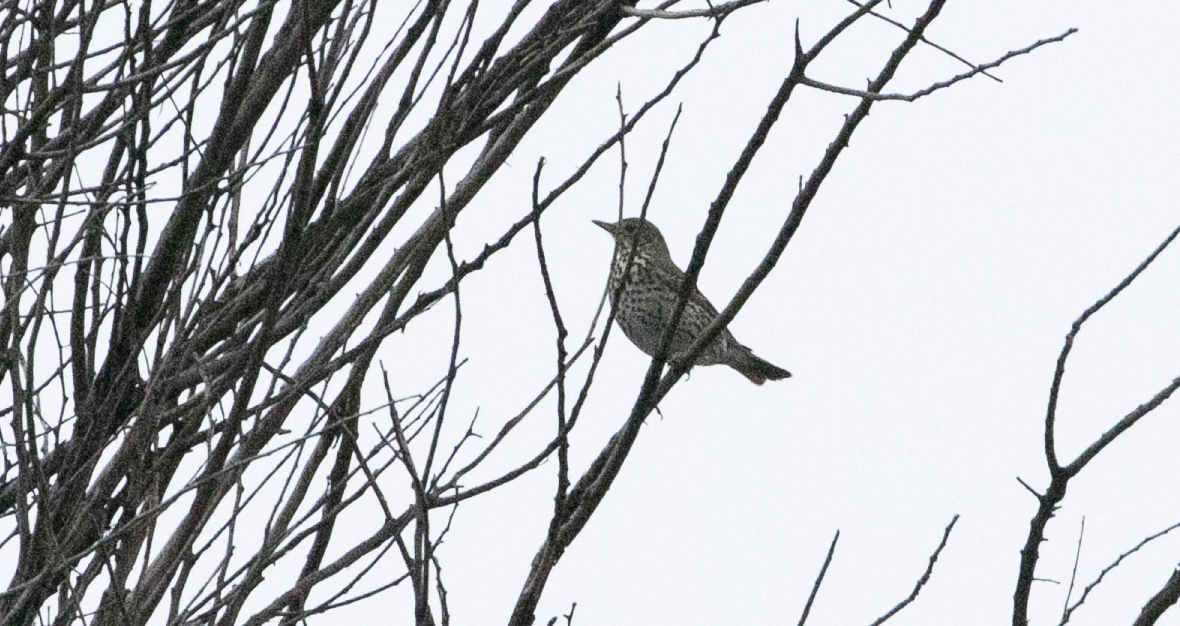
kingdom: Animalia
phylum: Chordata
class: Aves
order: Passeriformes
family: Turdidae
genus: Turdus
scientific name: Turdus philomelos
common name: Song thrush
